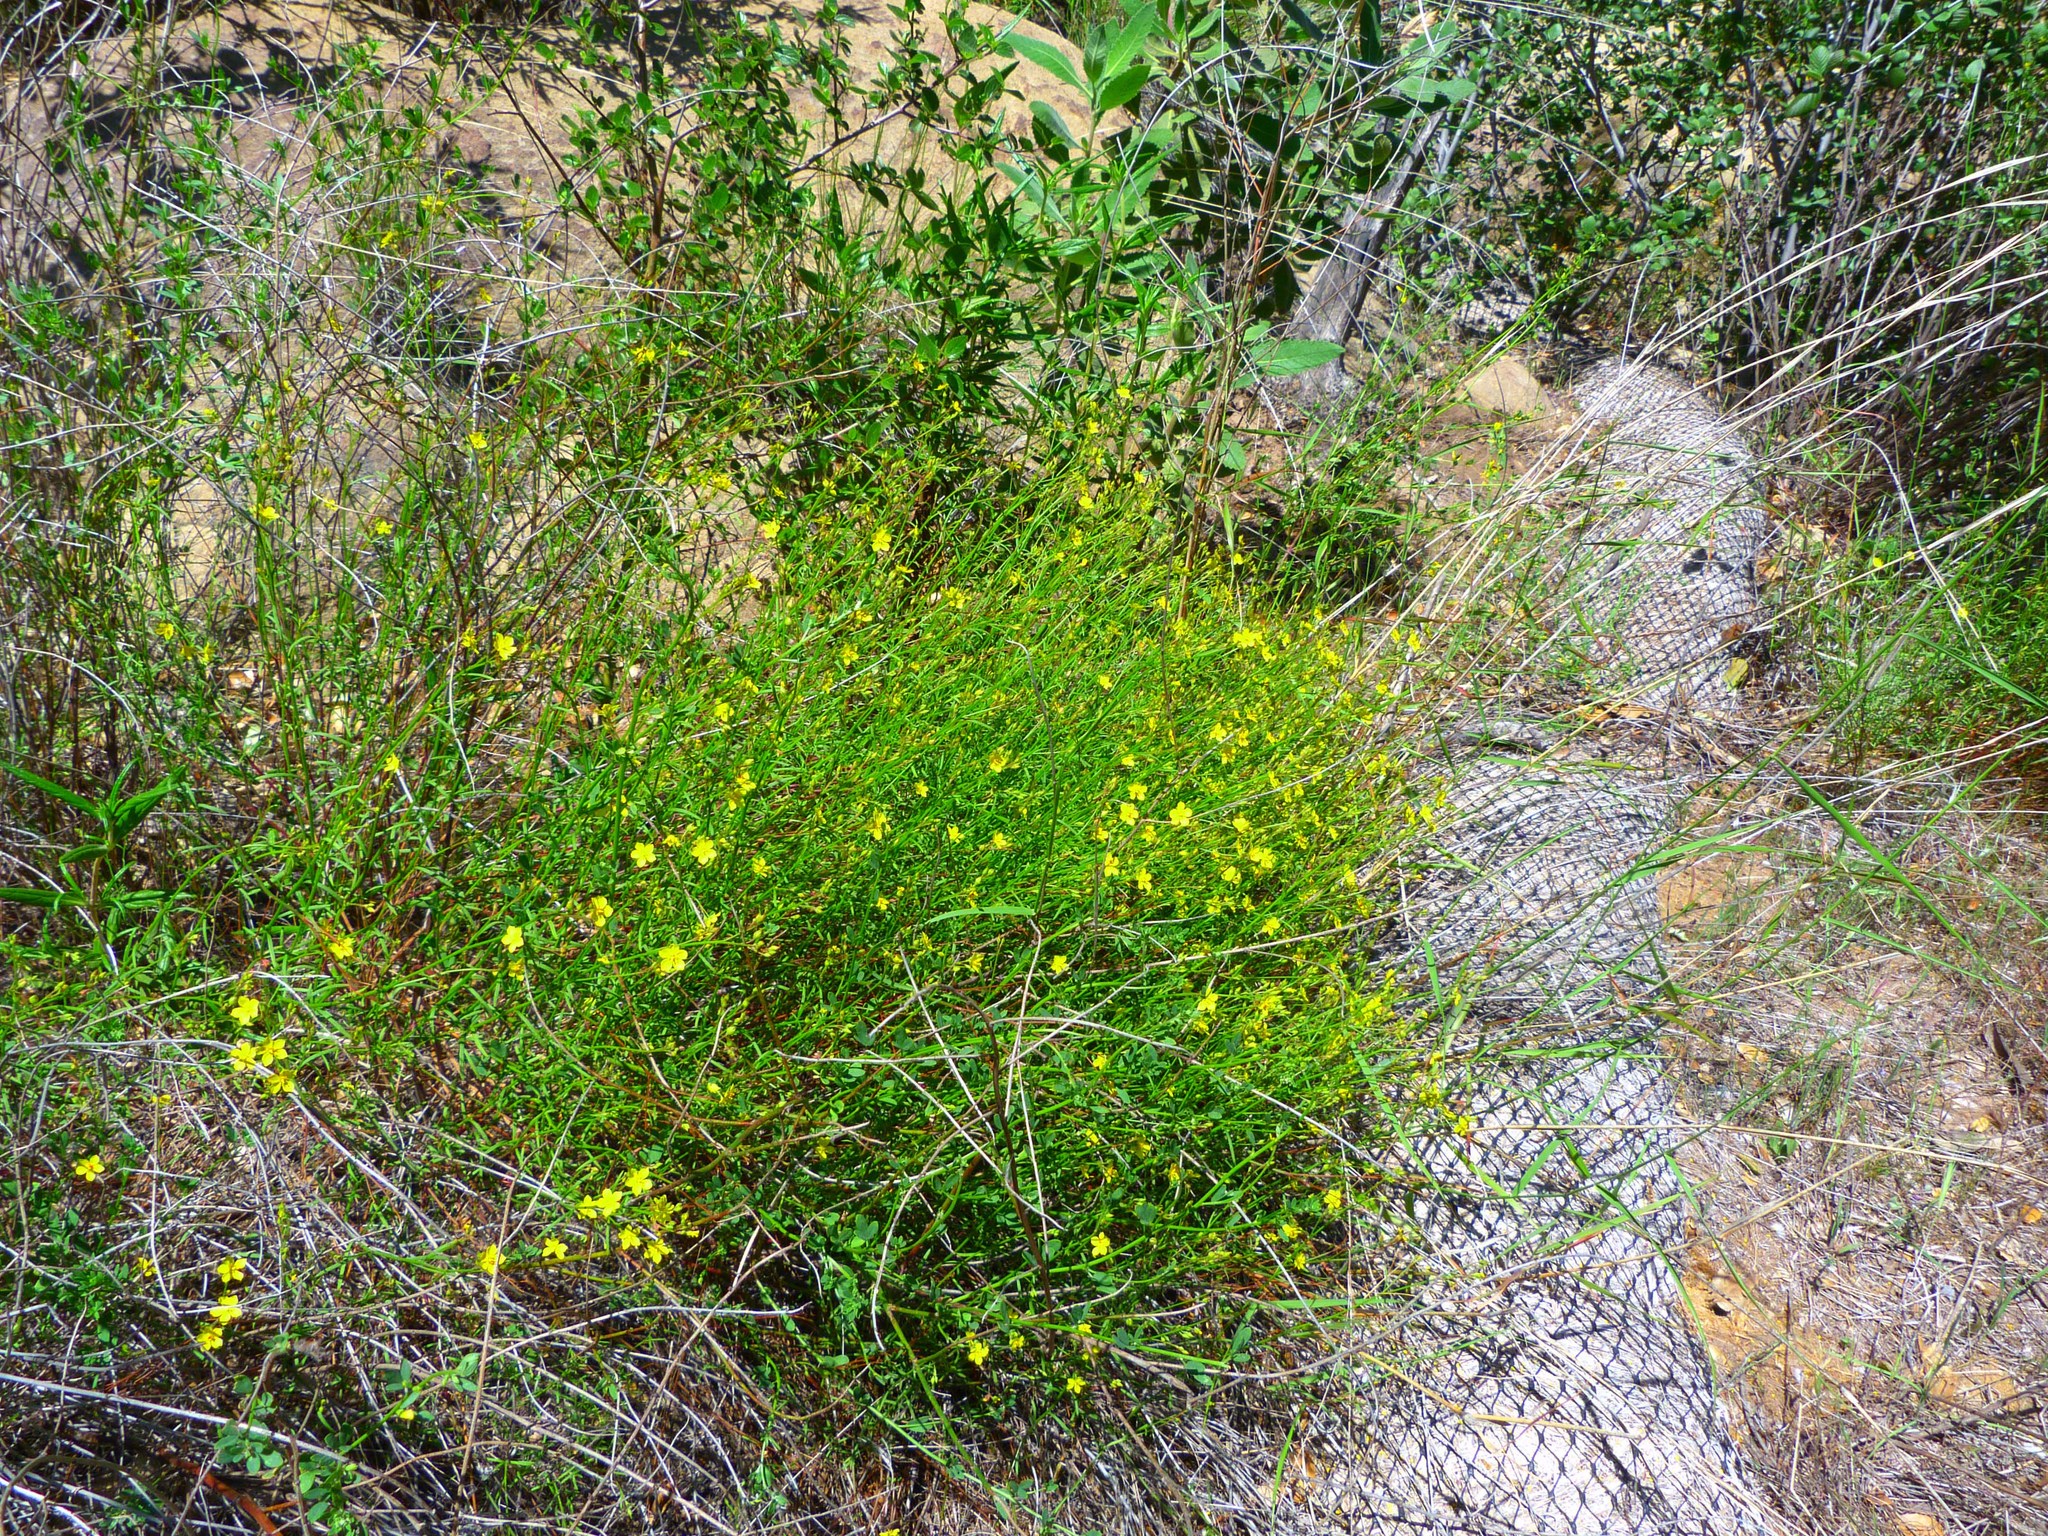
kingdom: Plantae
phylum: Tracheophyta
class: Magnoliopsida
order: Malvales
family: Cistaceae
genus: Crocanthemum
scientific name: Crocanthemum scoparium
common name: Broom-rose
